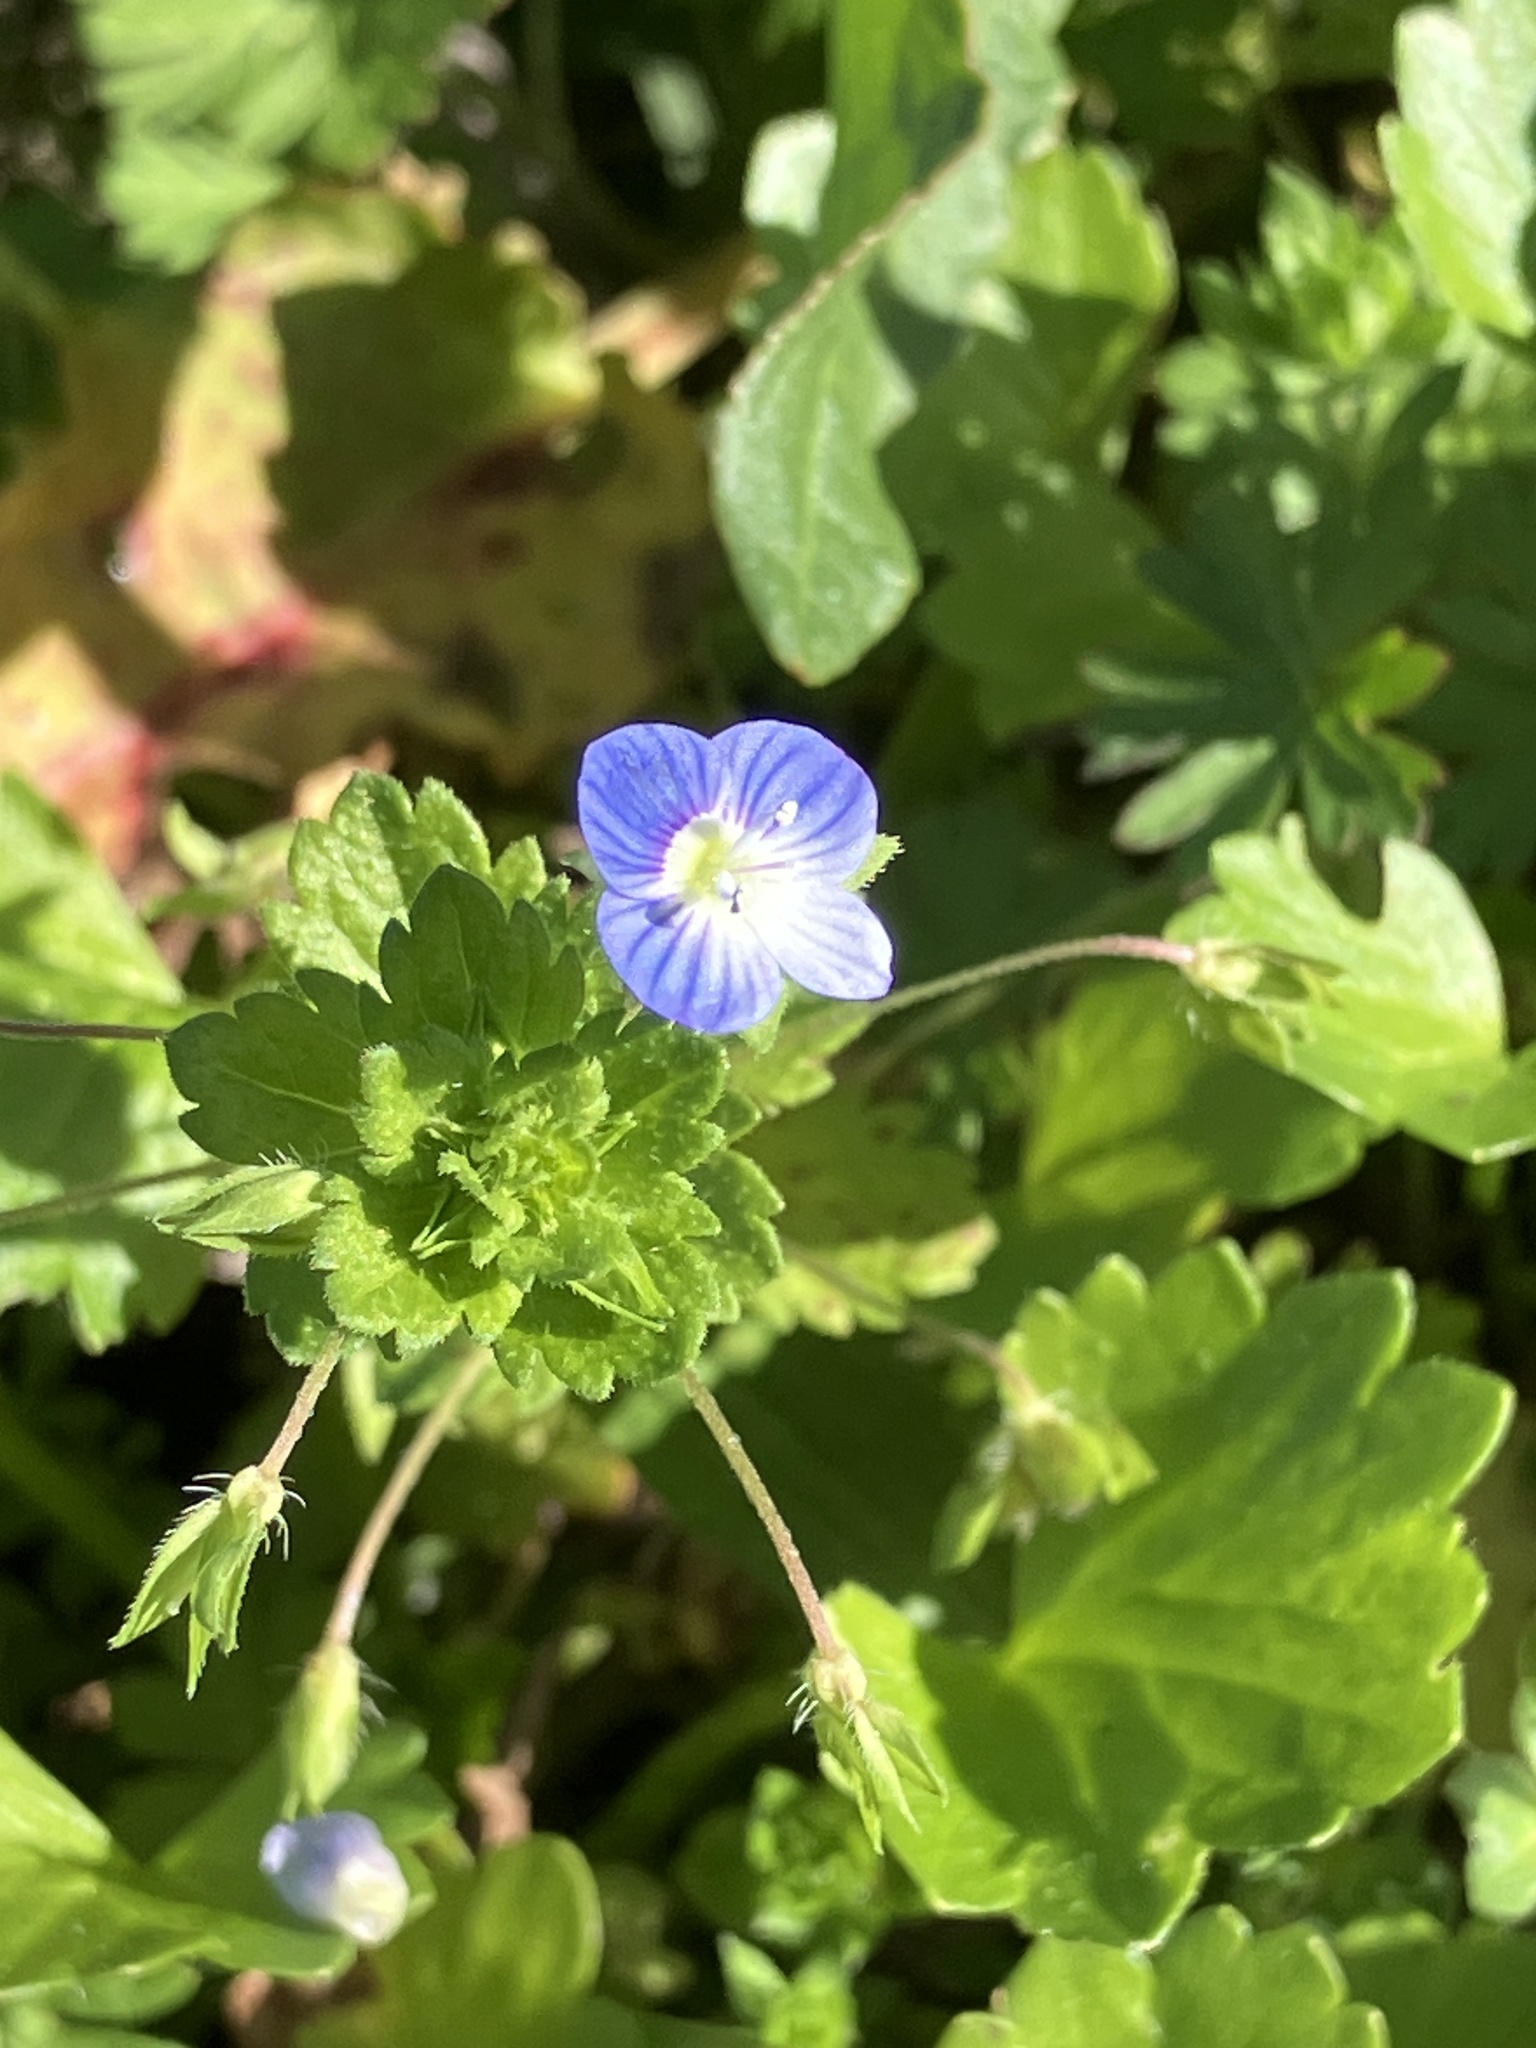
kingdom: Plantae
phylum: Tracheophyta
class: Magnoliopsida
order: Lamiales
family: Plantaginaceae
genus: Veronica
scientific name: Veronica persica
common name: Common field-speedwell
